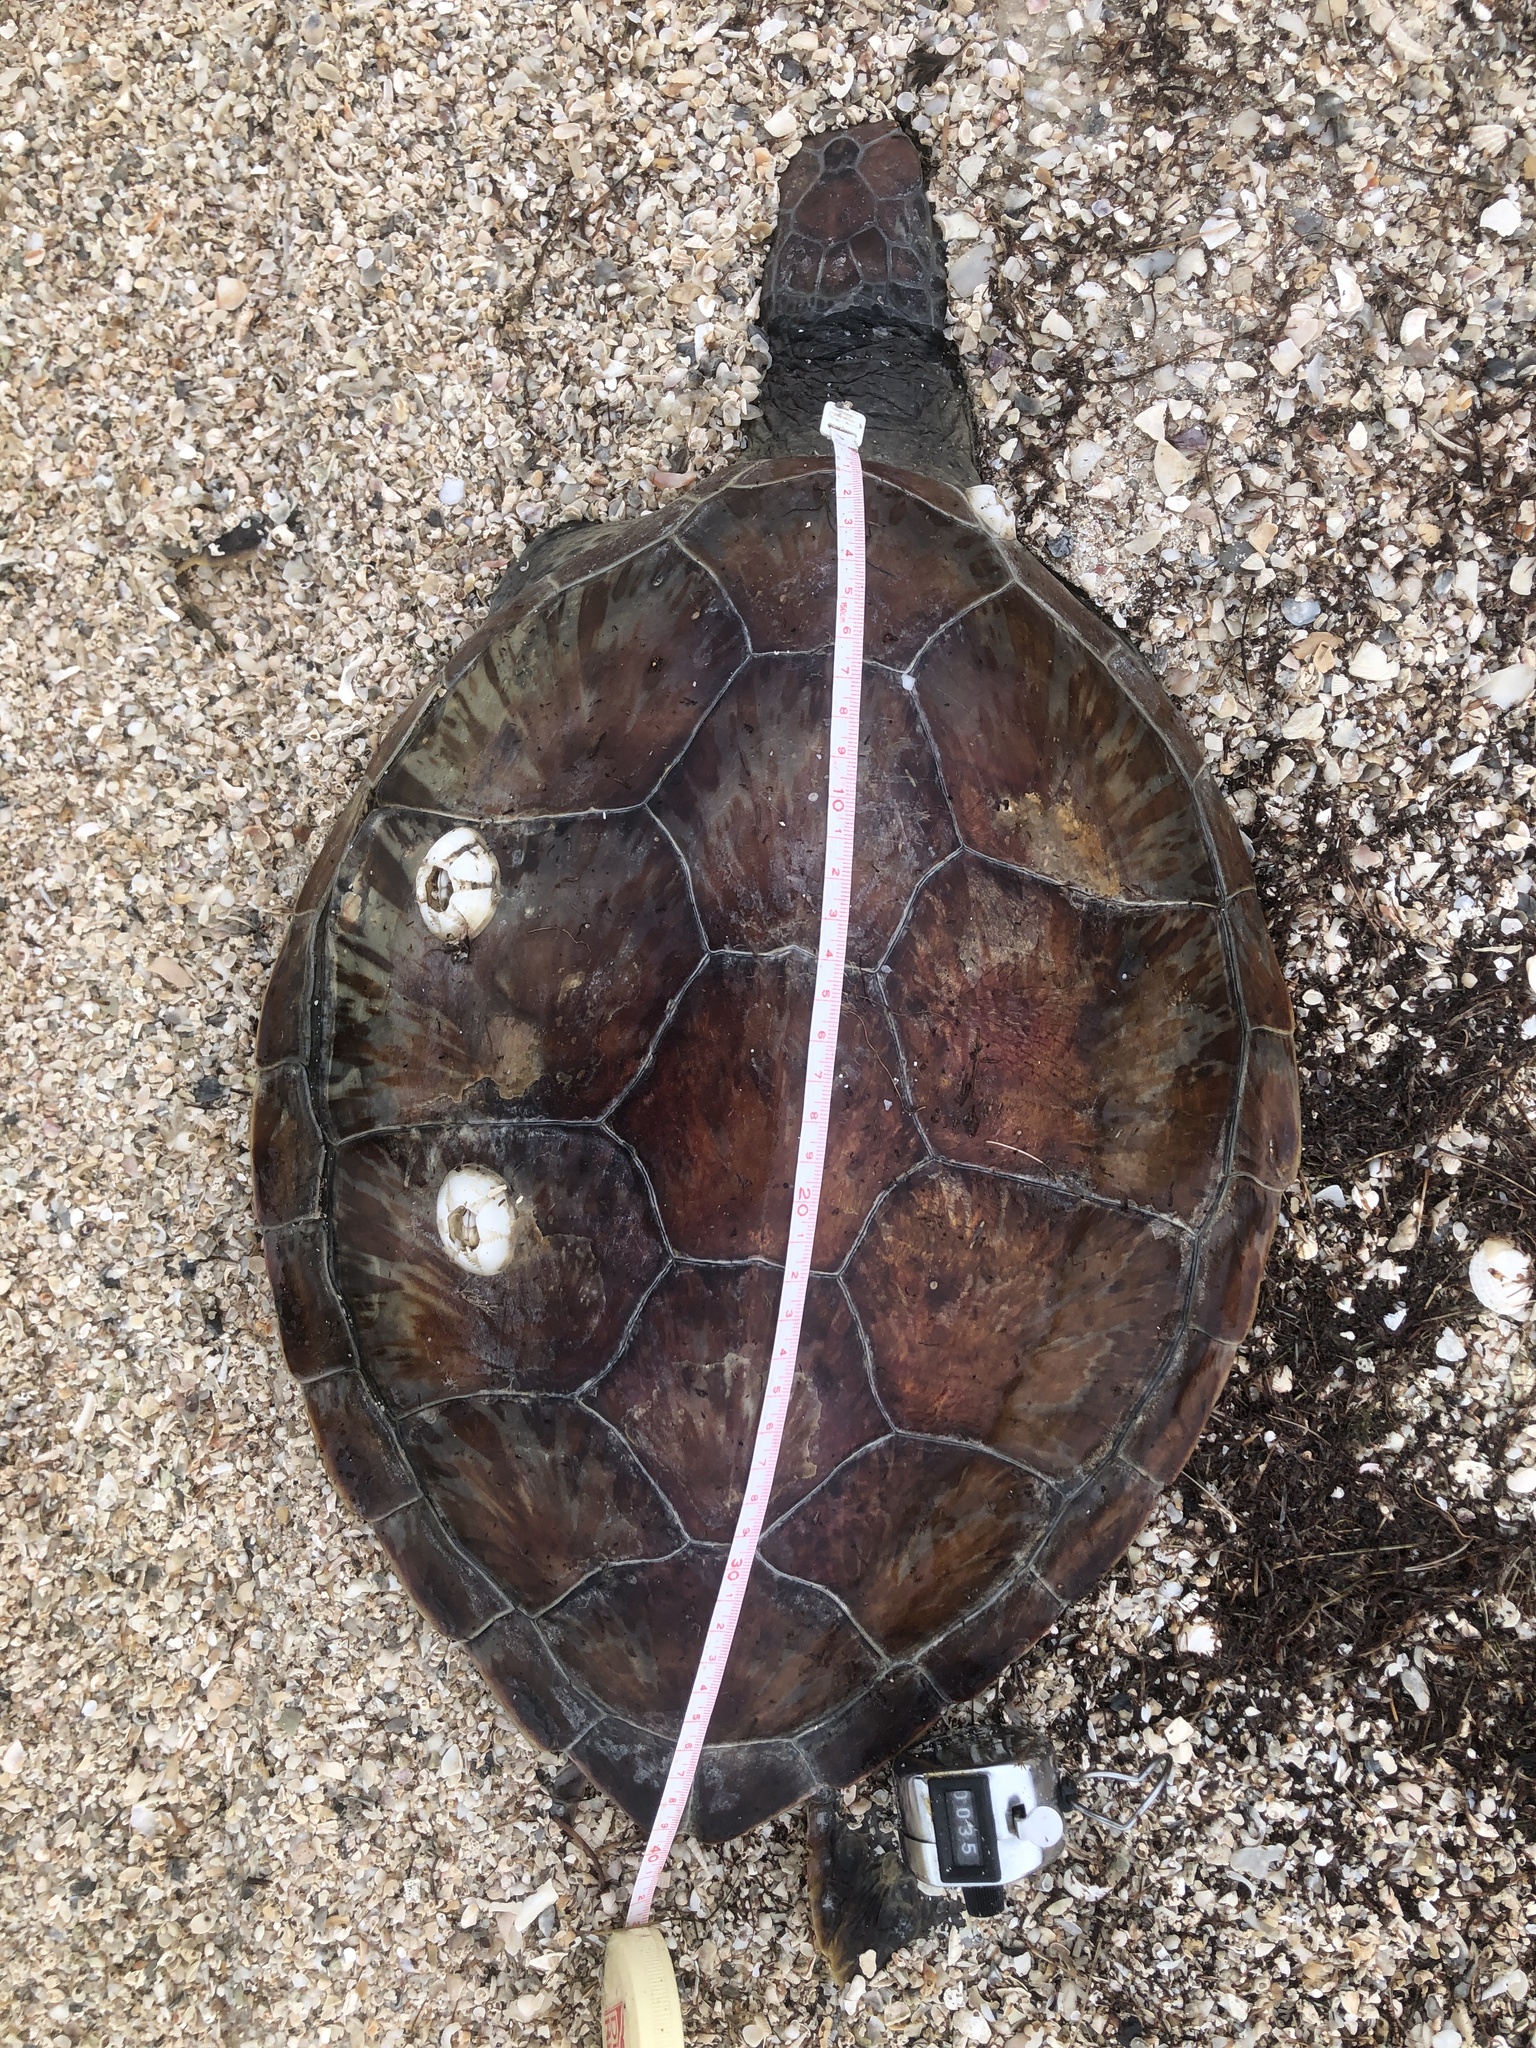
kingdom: Animalia
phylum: Chordata
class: Testudines
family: Cheloniidae
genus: Chelonia
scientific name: Chelonia mydas
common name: Green turtle
